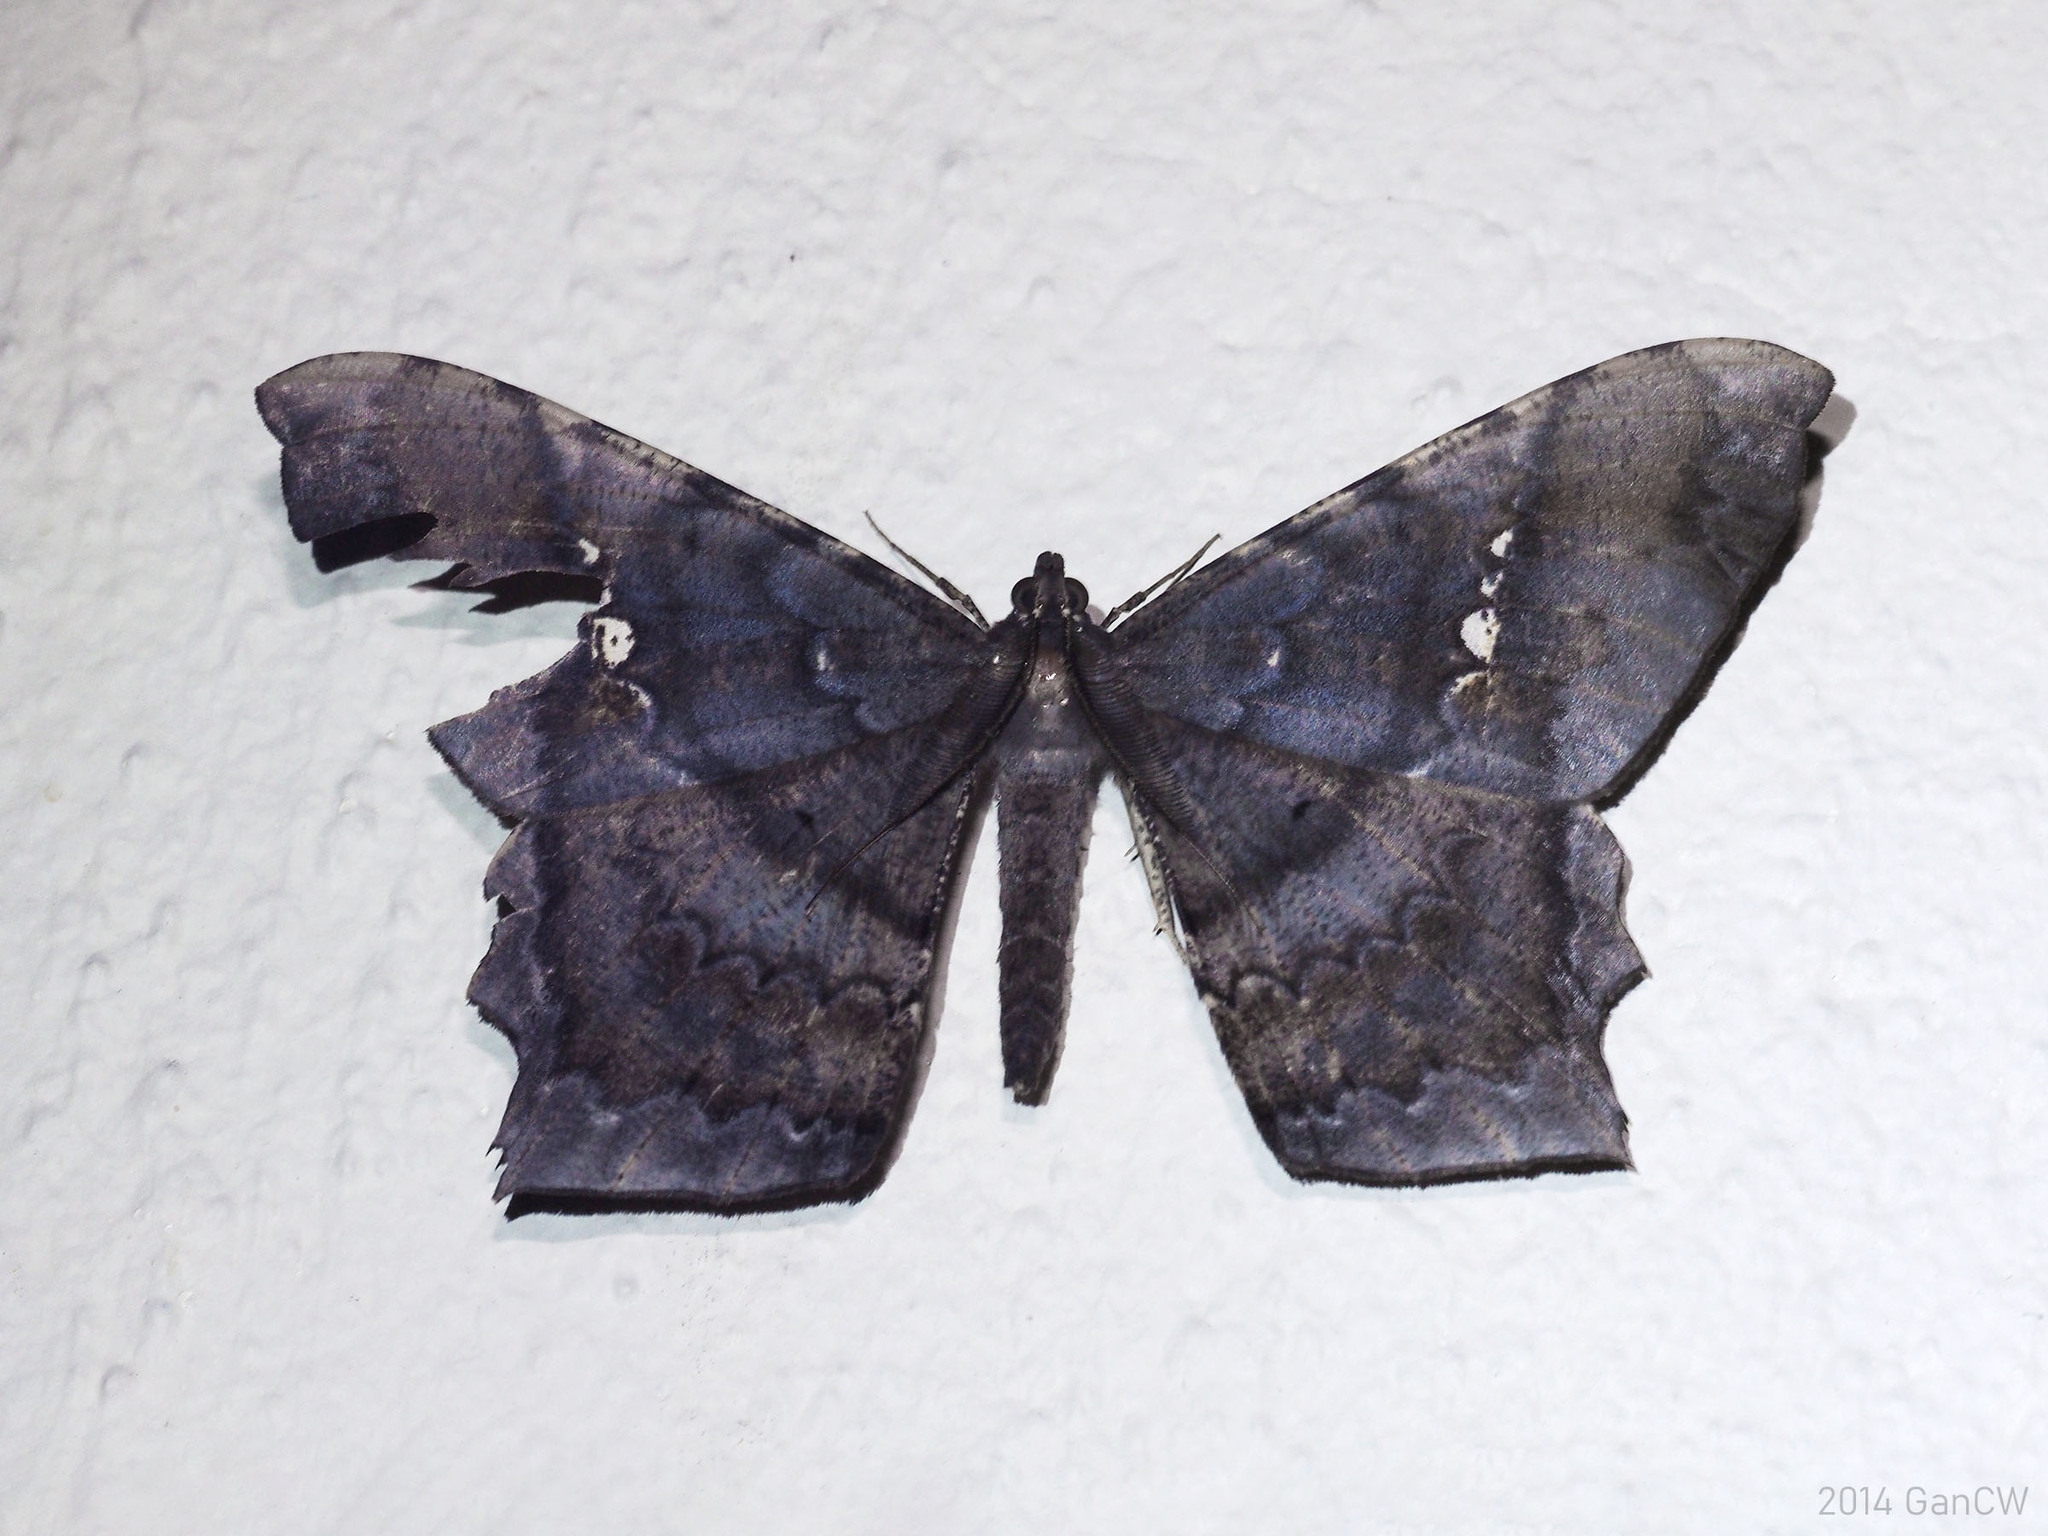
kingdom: Animalia
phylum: Arthropoda
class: Insecta
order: Lepidoptera
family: Geometridae
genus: Amblychia
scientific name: Amblychia infoveata
